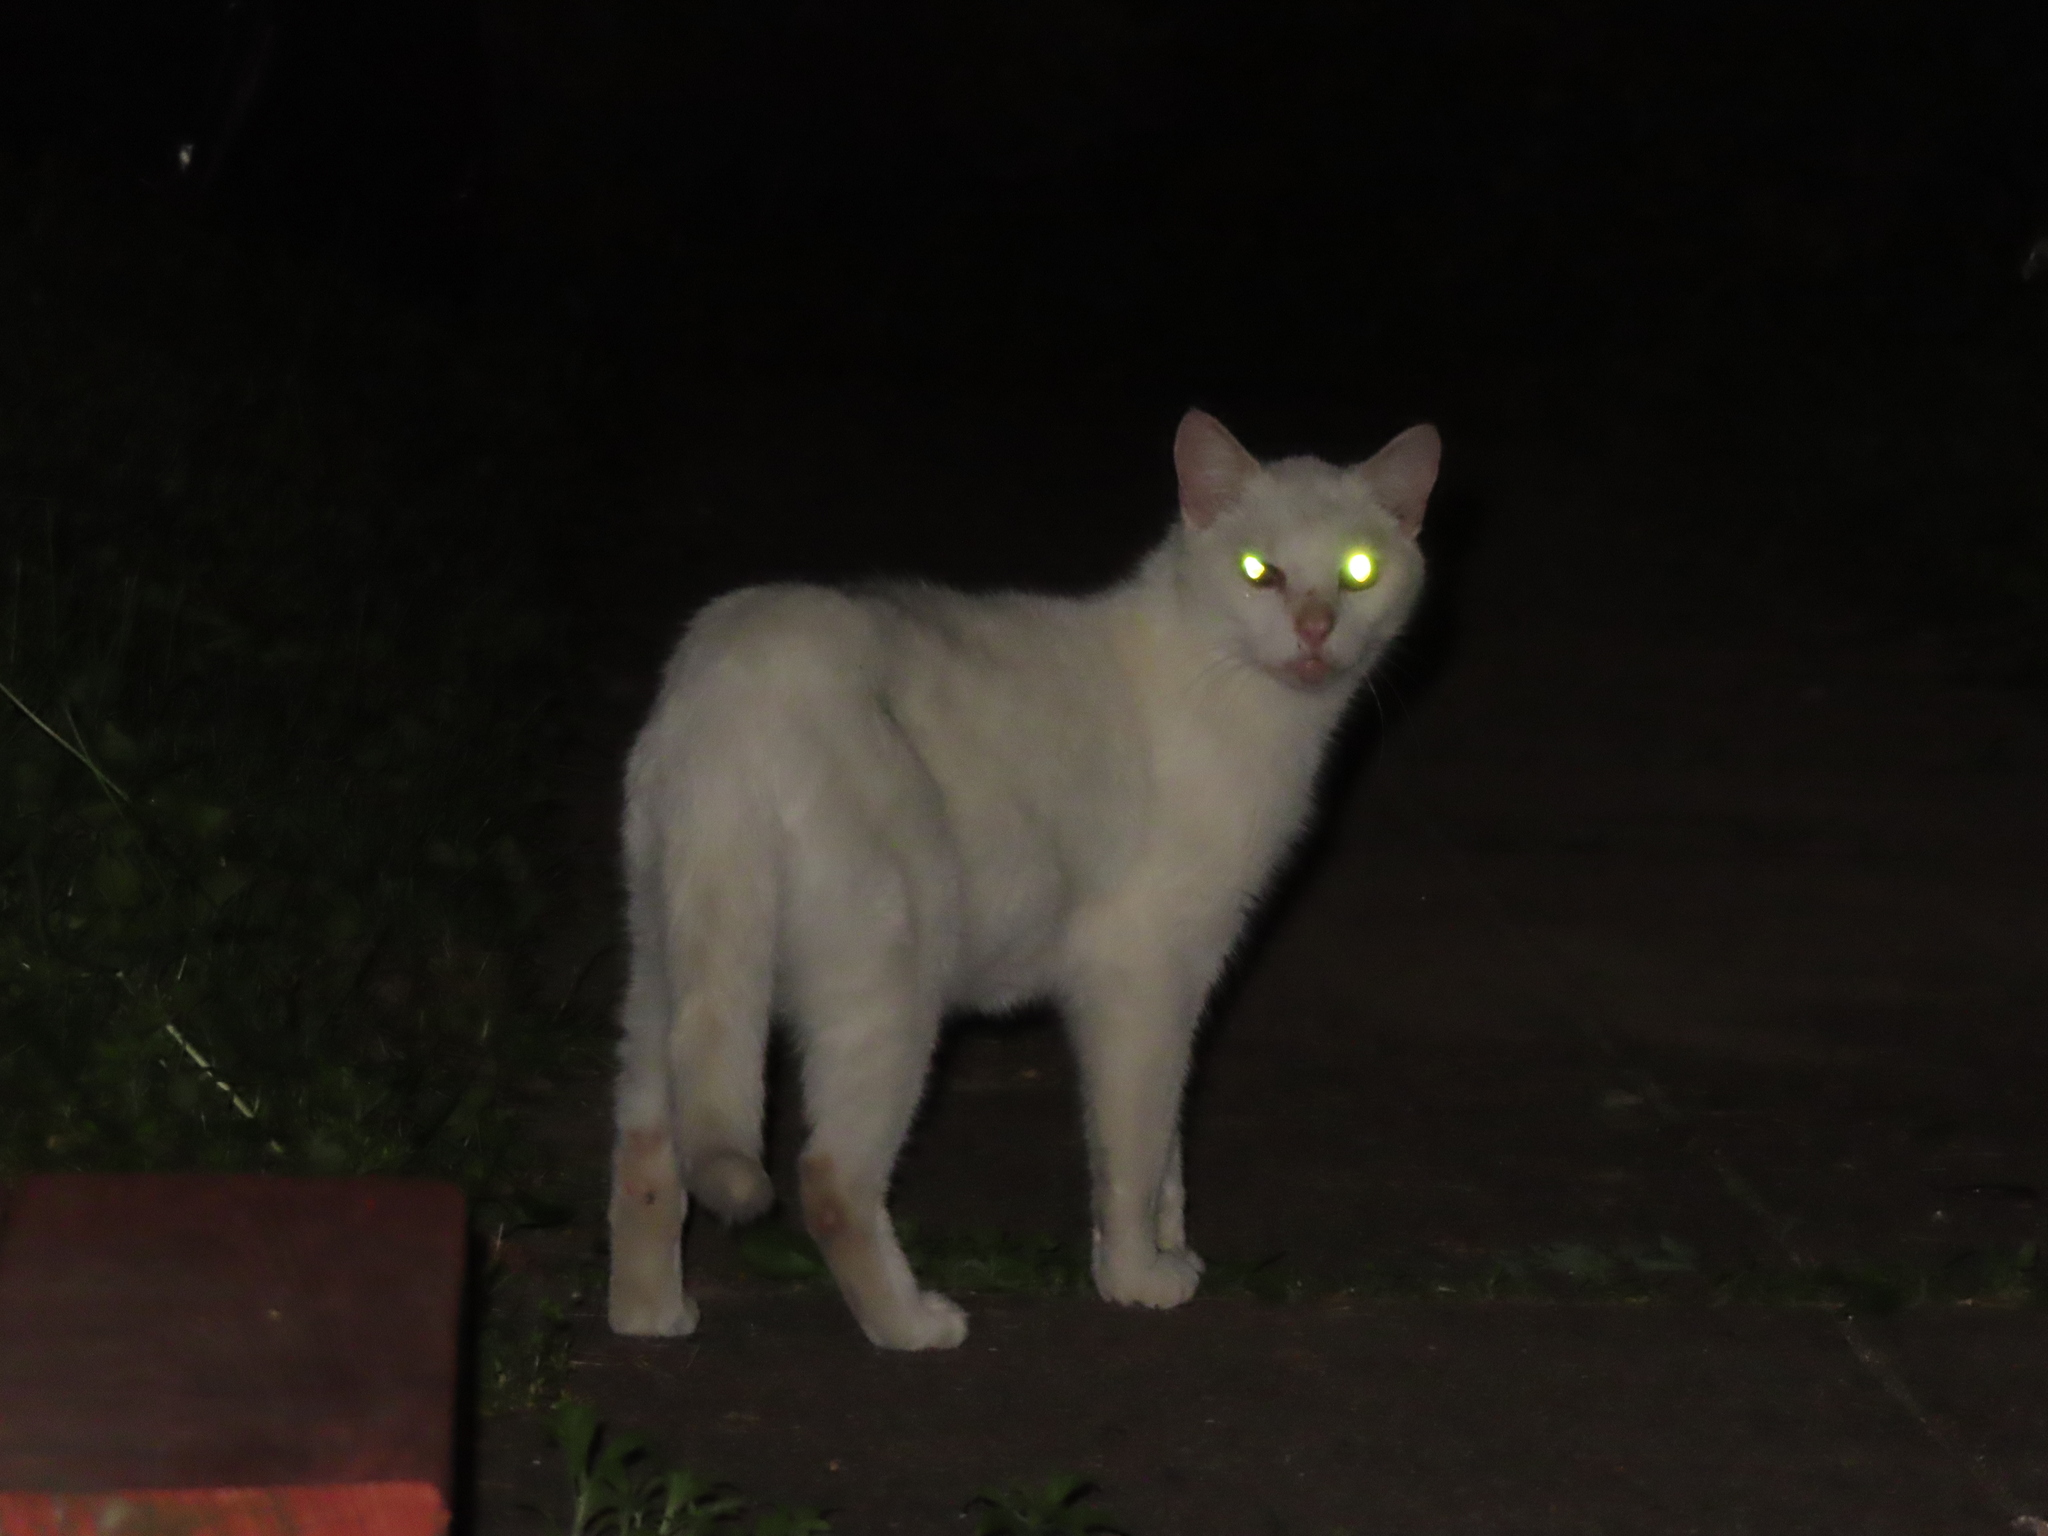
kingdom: Animalia
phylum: Chordata
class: Mammalia
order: Carnivora
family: Felidae
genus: Felis
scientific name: Felis catus
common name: Domestic cat
